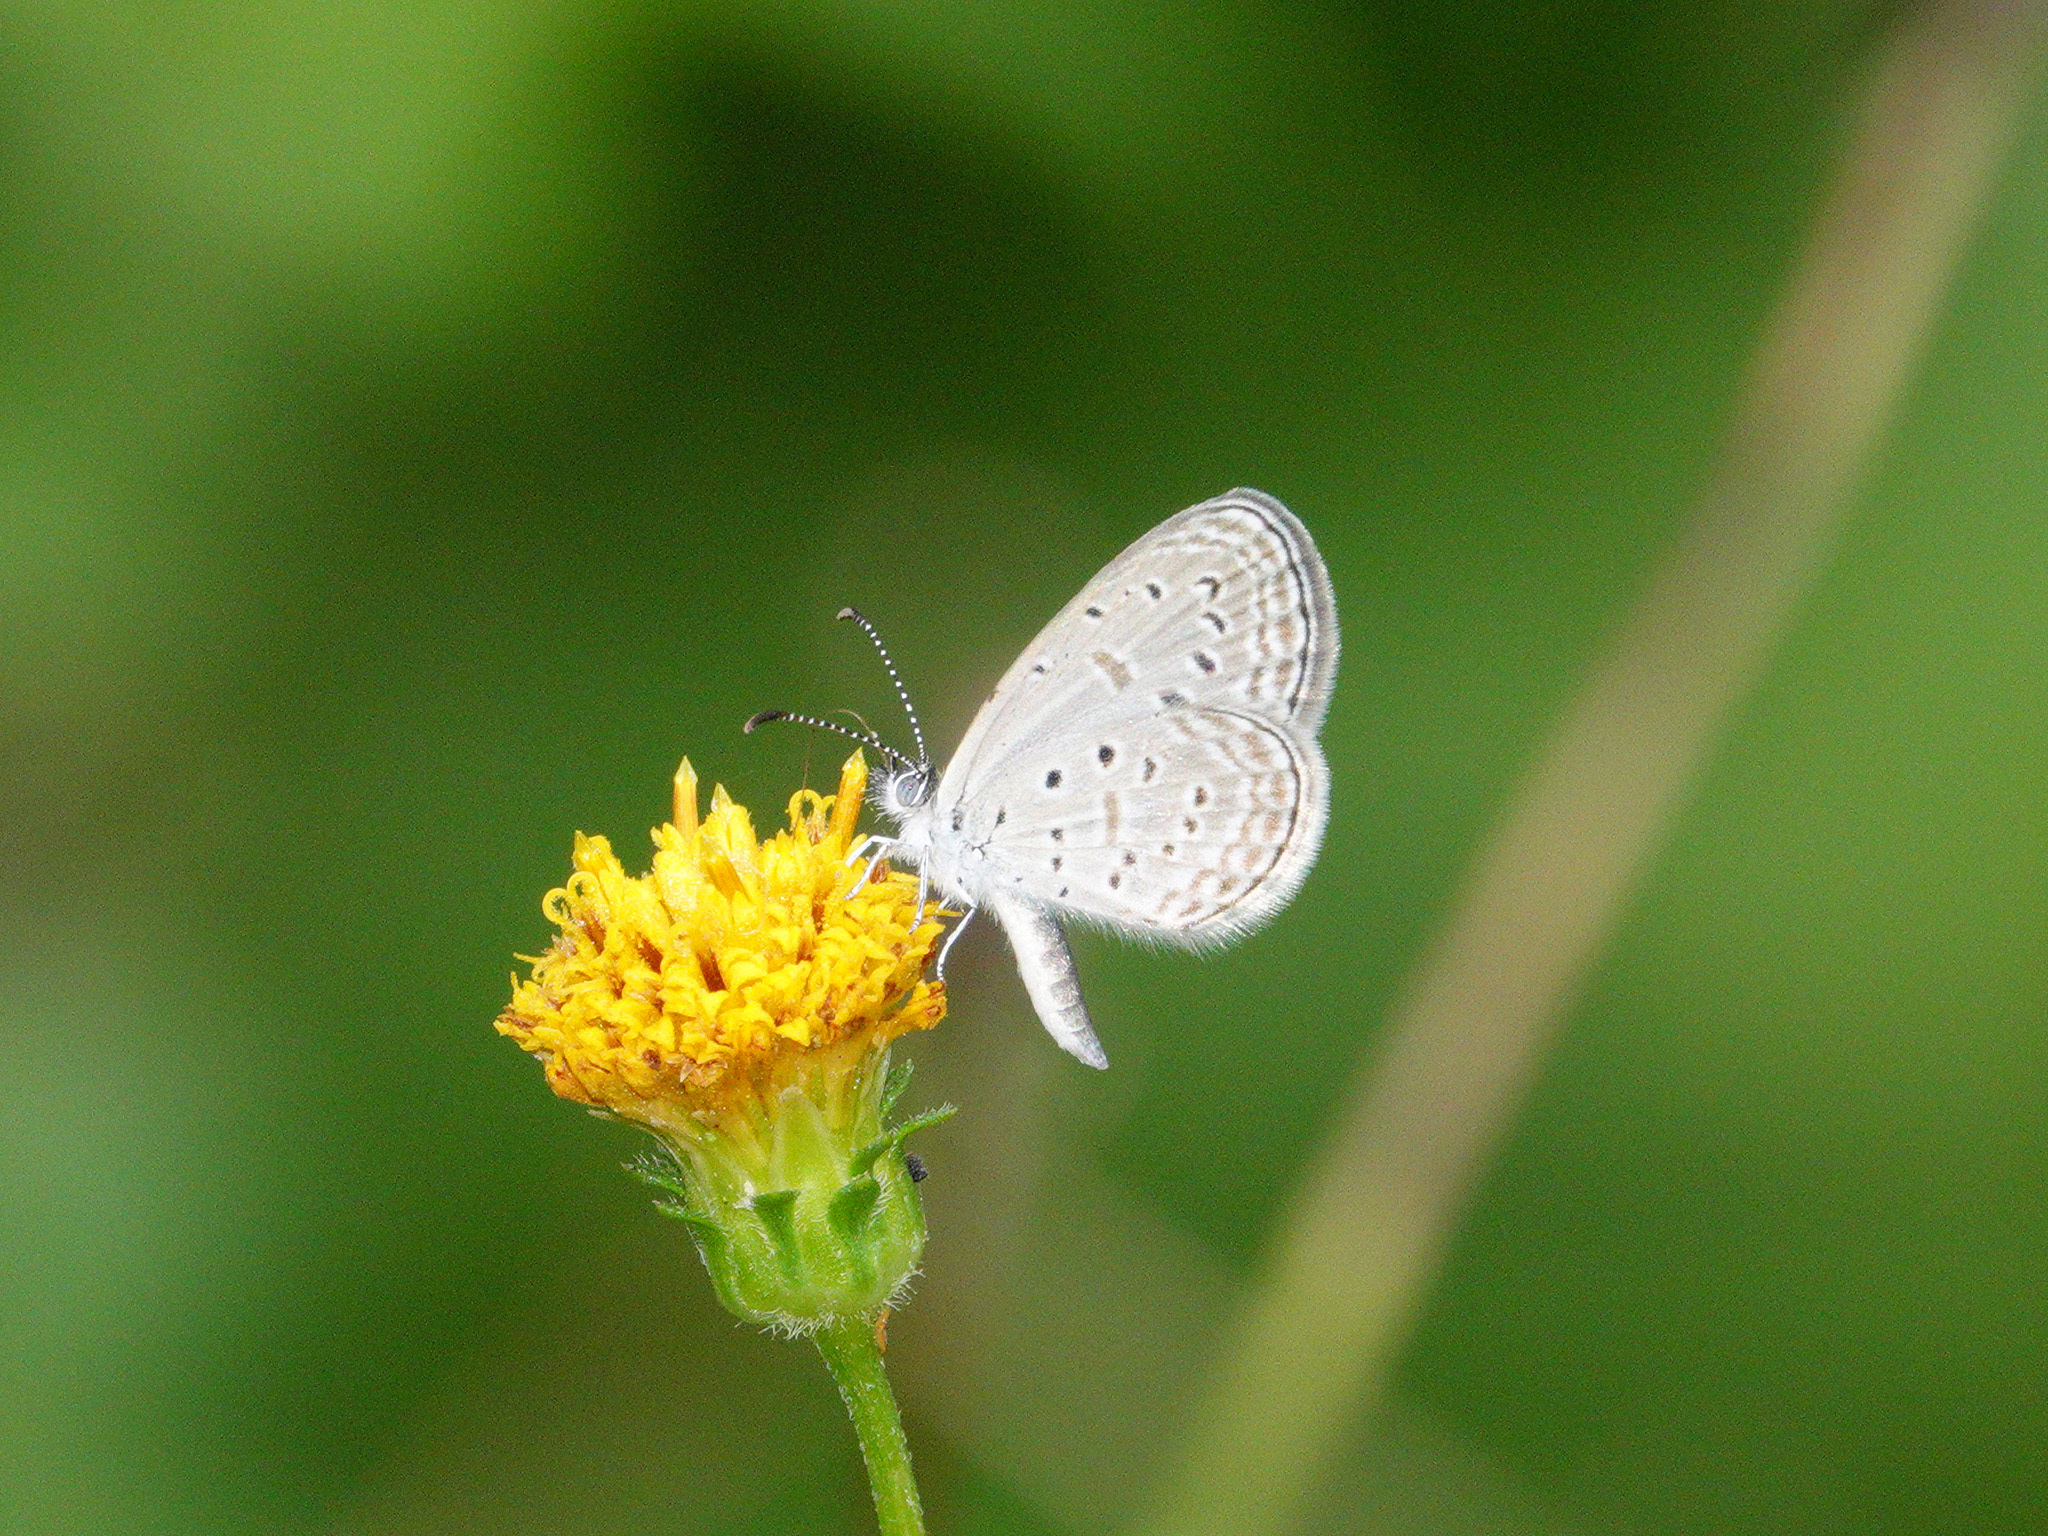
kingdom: Animalia
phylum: Arthropoda
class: Insecta
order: Lepidoptera
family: Lycaenidae
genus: Zizula
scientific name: Zizula hylax
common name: Gaika blue
